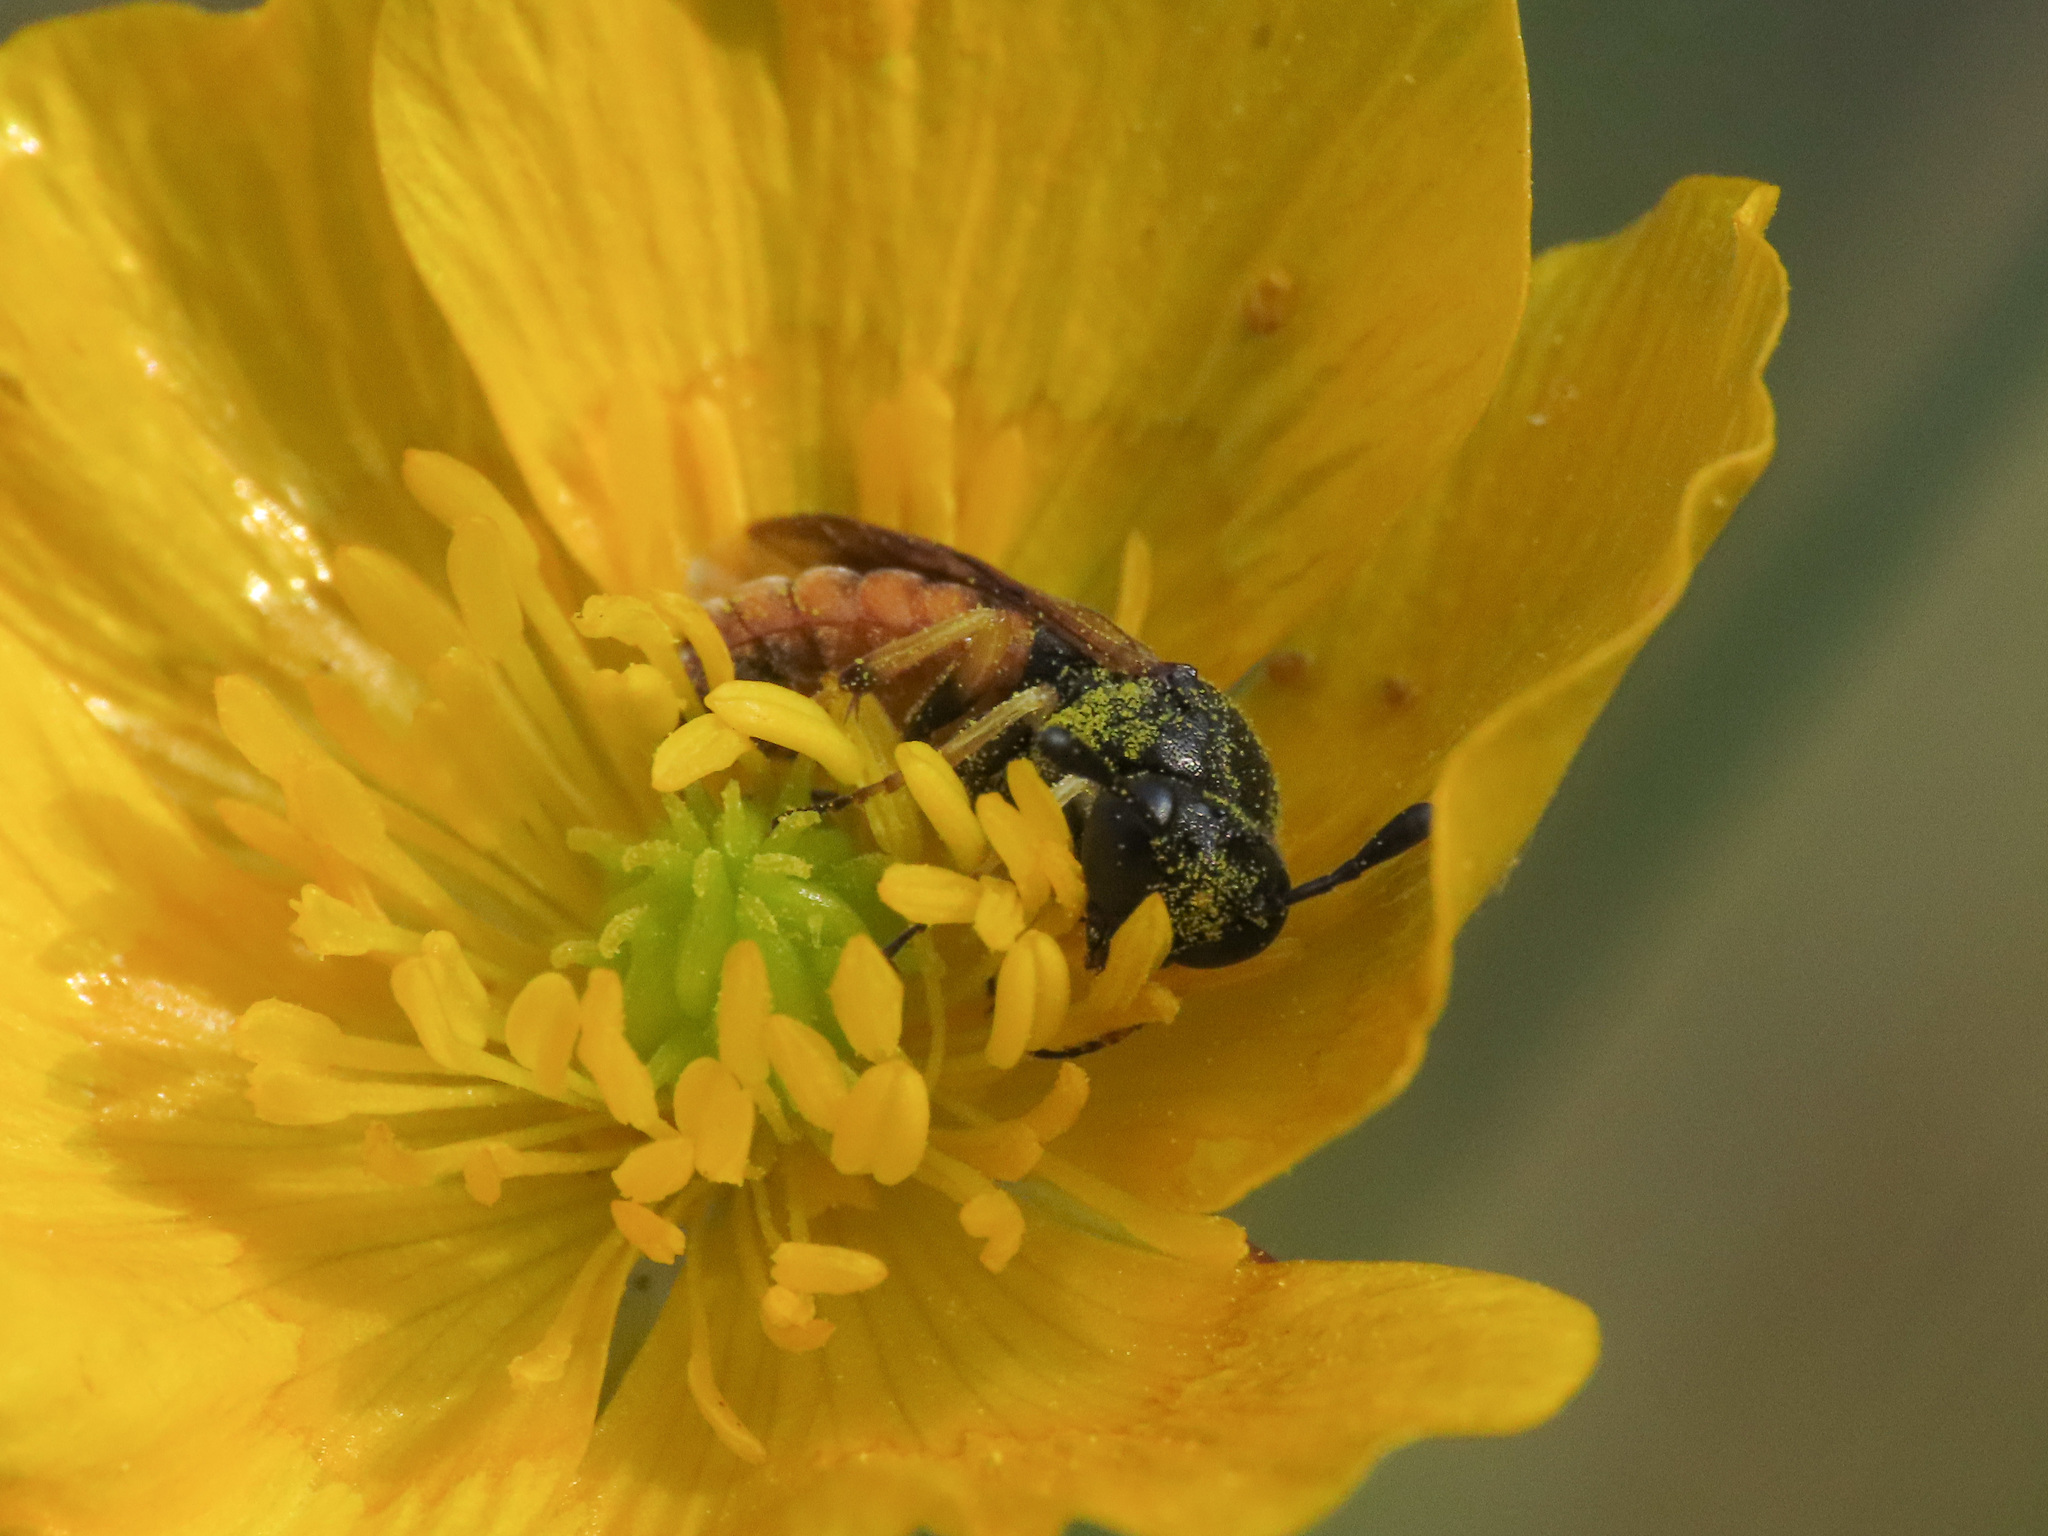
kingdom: Animalia
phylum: Arthropoda
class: Insecta
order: Hymenoptera
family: Cimbicidae
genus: Corynis
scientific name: Corynis crassicornis
